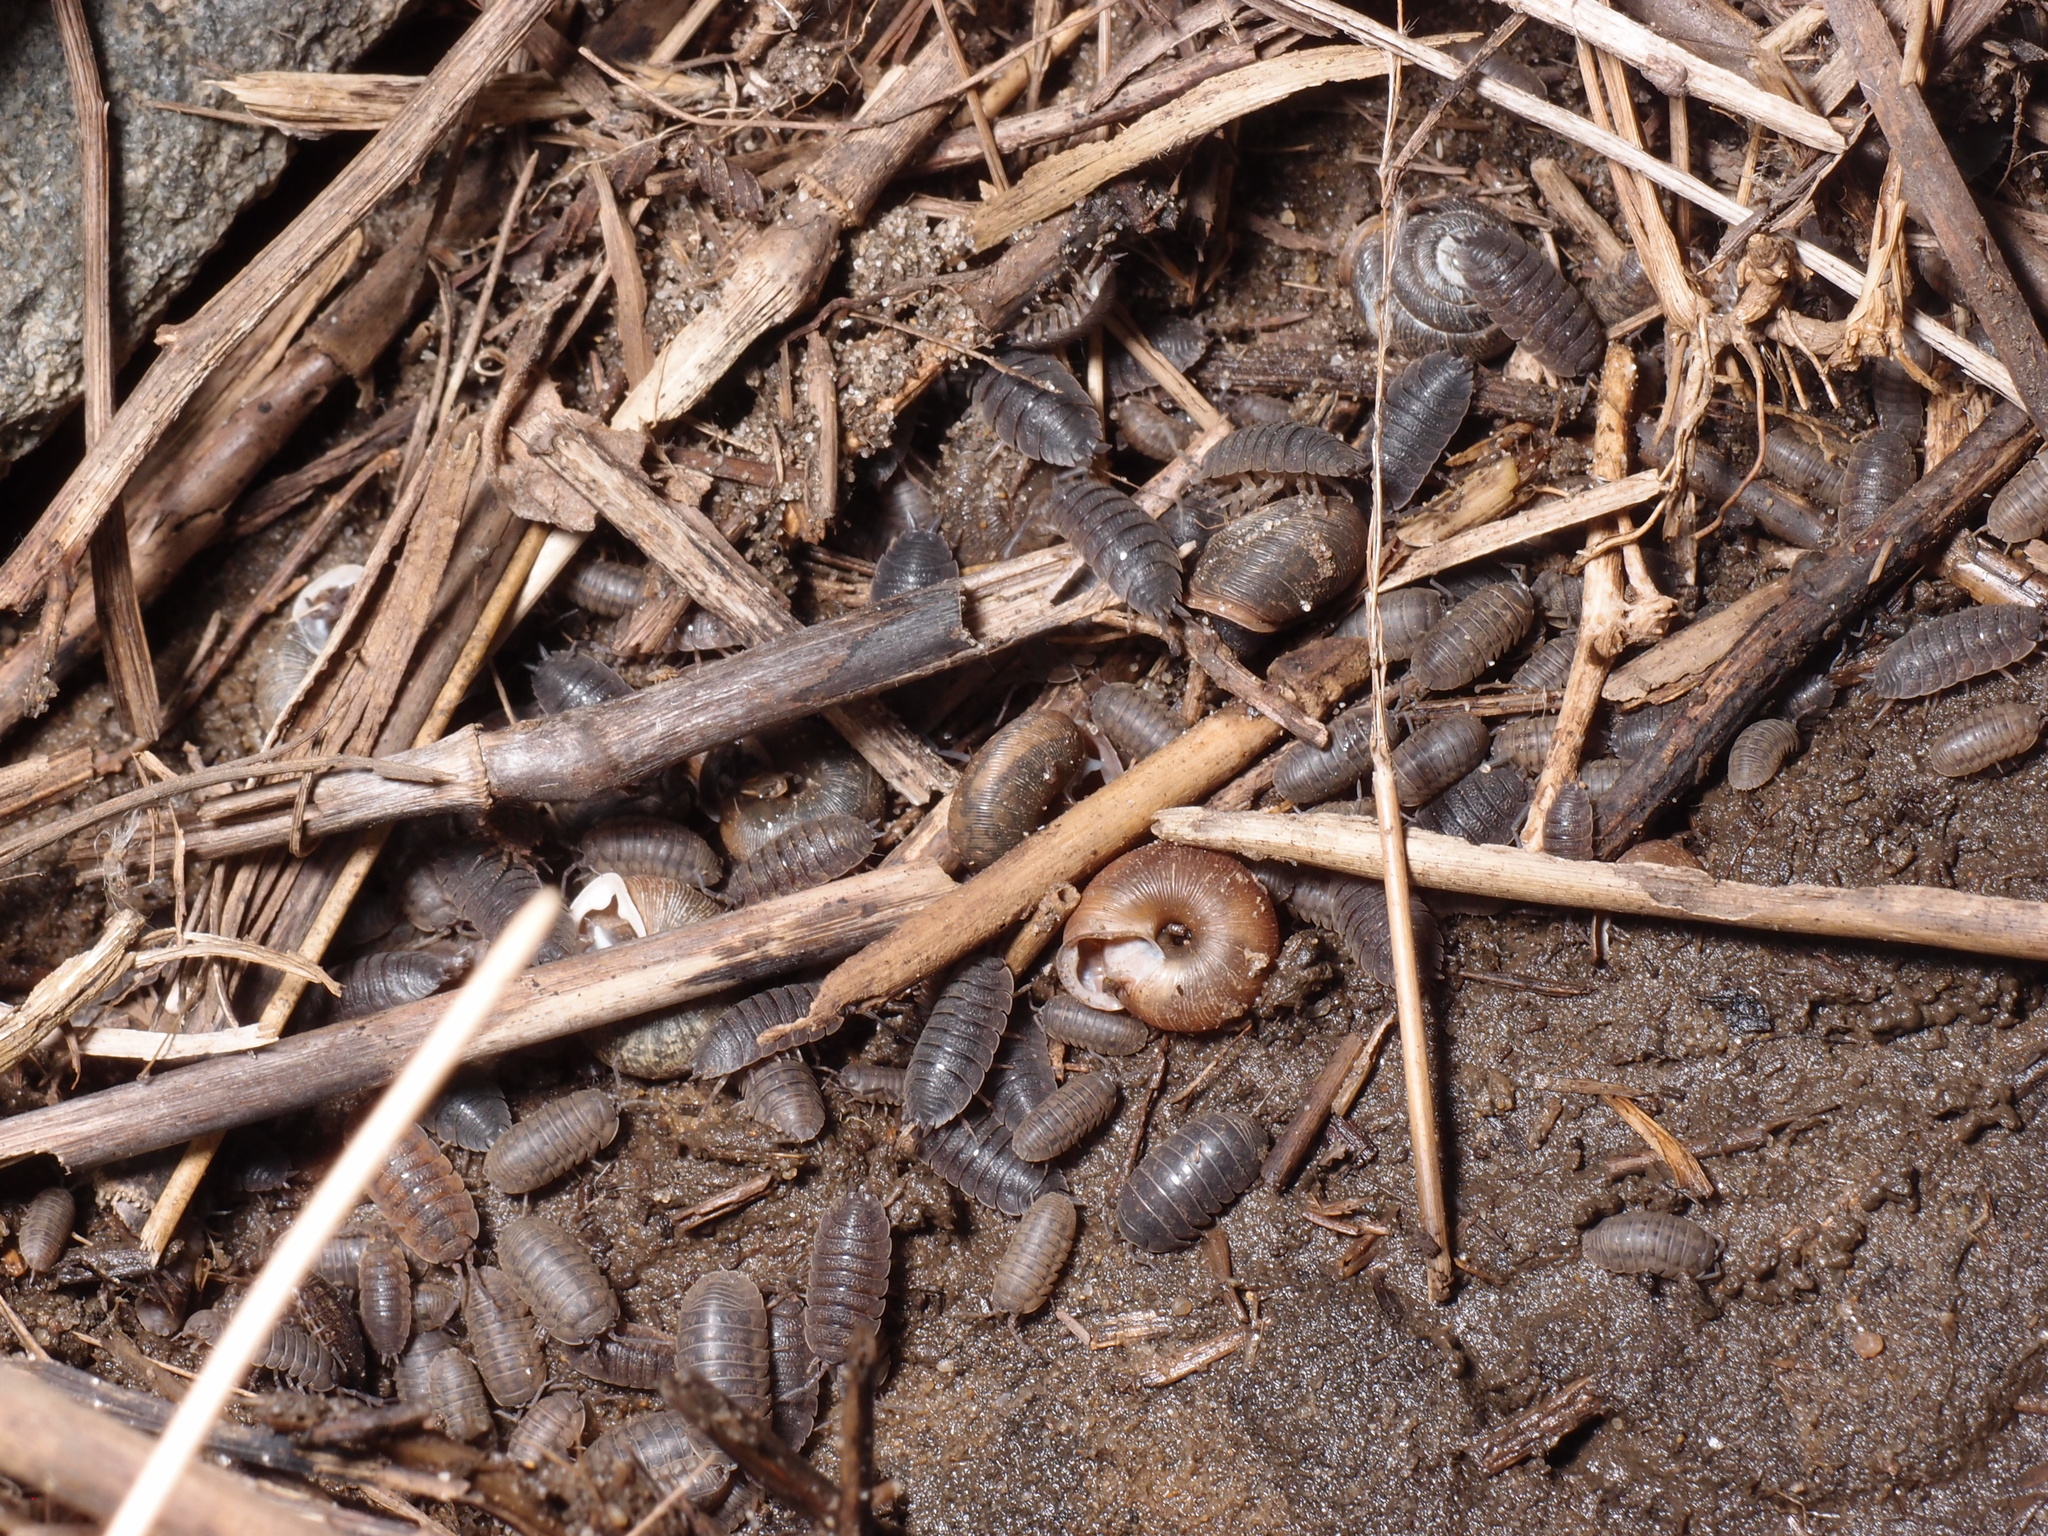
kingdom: Animalia
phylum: Arthropoda
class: Malacostraca
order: Isopoda
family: Porcellionidae
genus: Porcellio
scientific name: Porcellio scaber
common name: Common rough woodlouse
